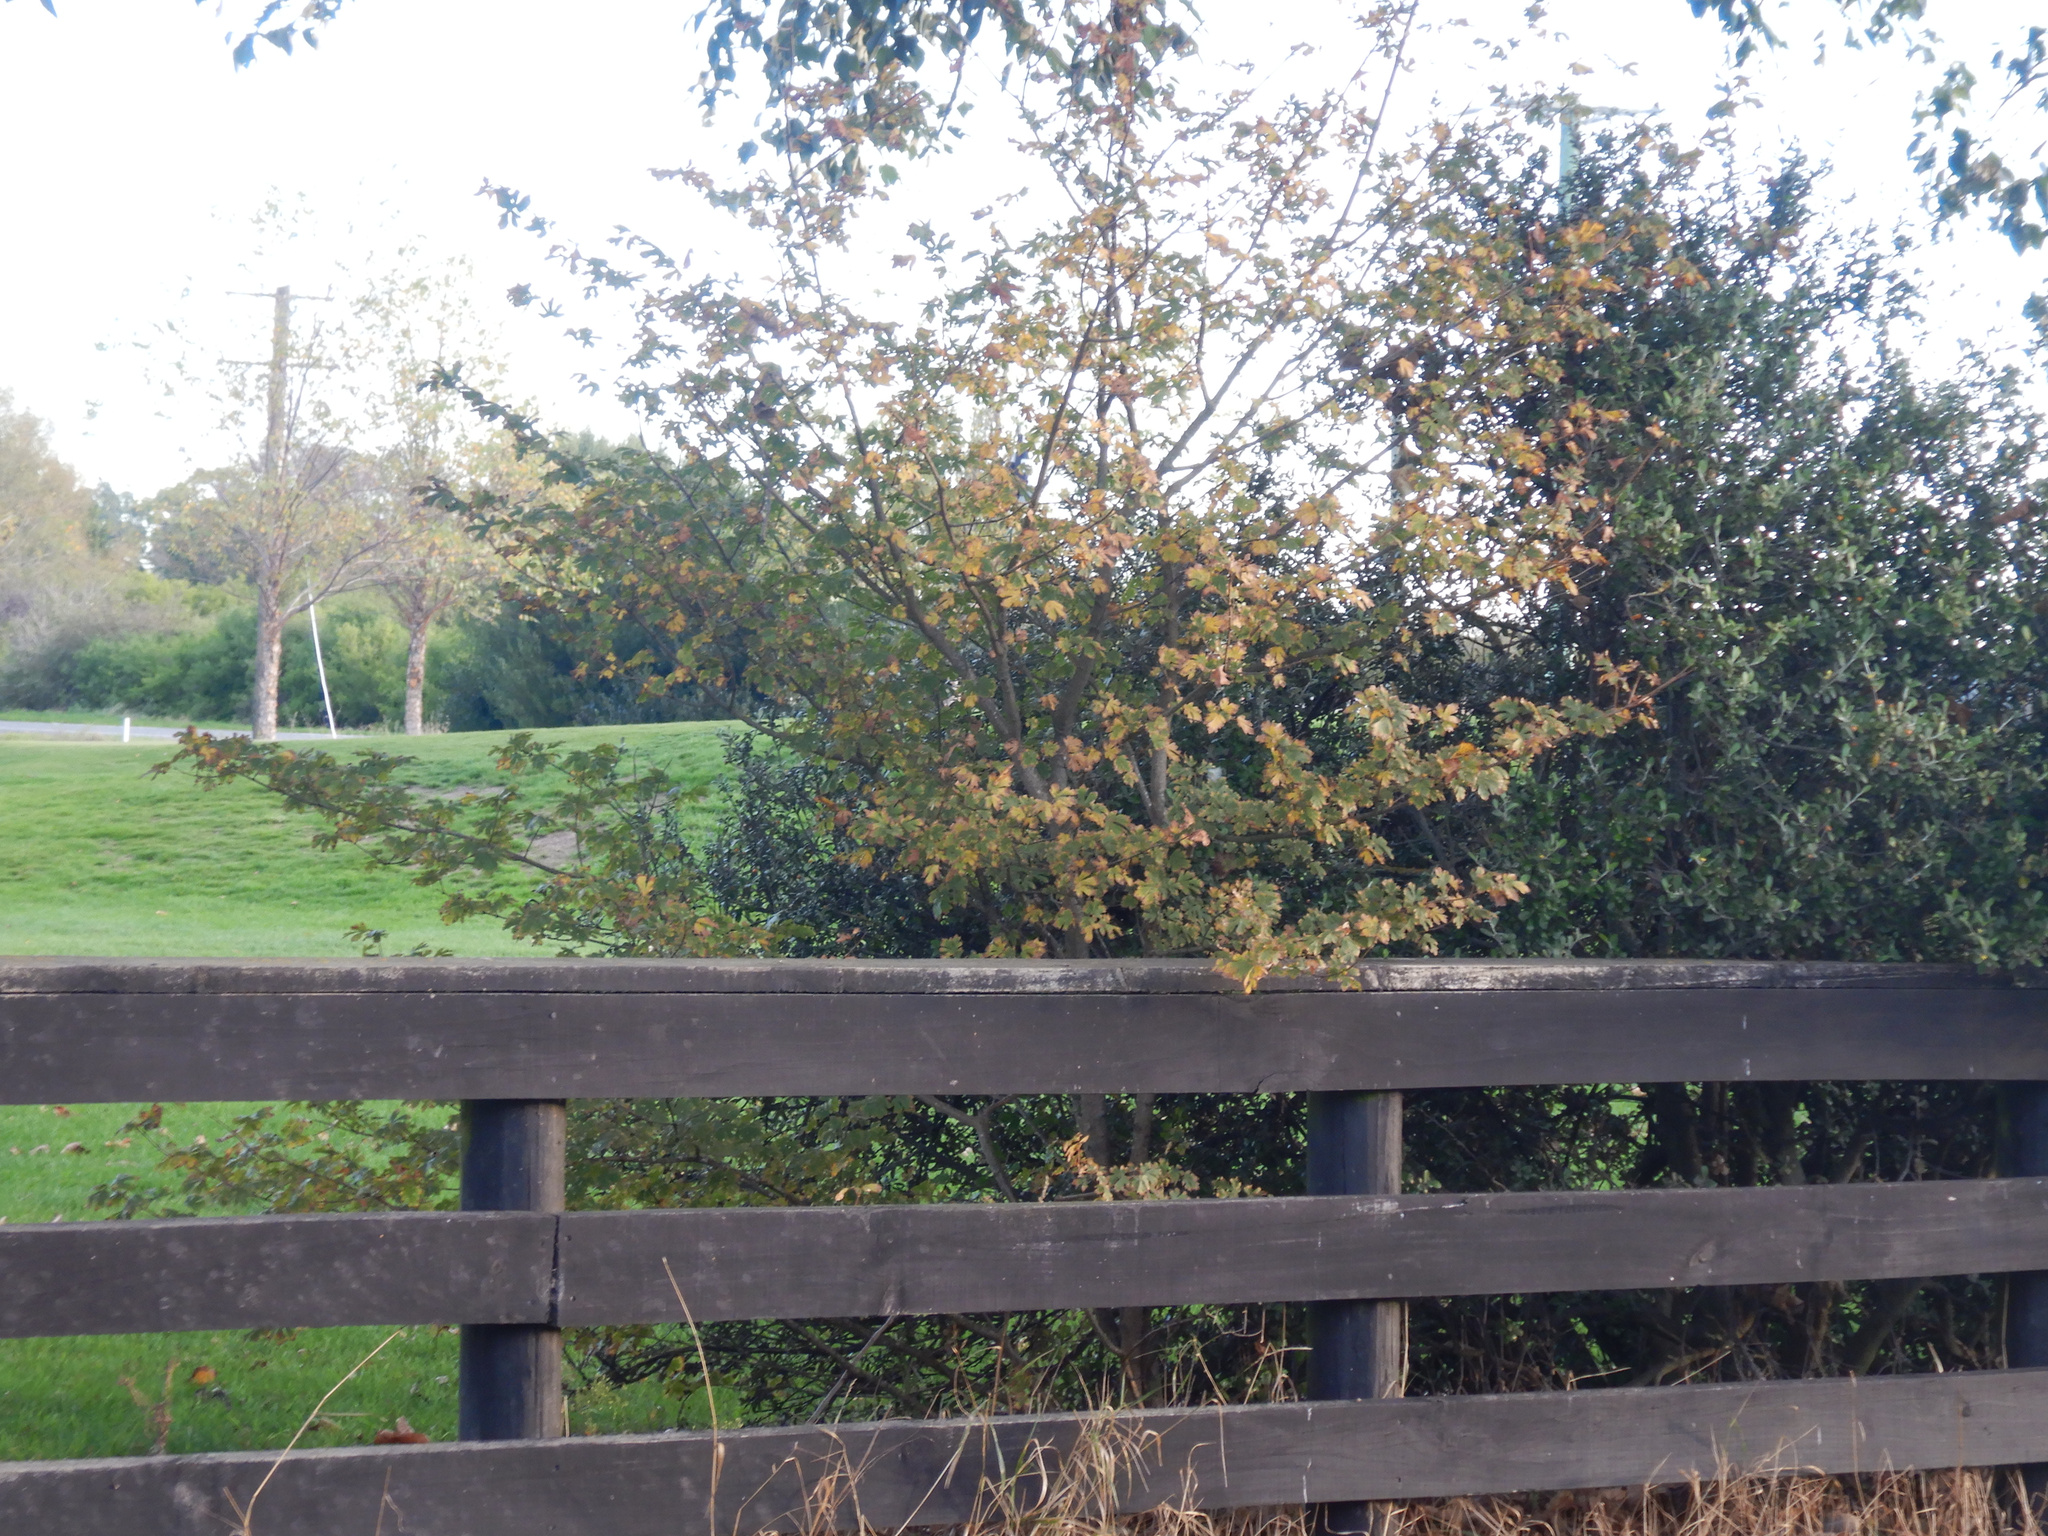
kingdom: Plantae
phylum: Tracheophyta
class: Magnoliopsida
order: Rosales
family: Rosaceae
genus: Crataegus
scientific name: Crataegus monogyna
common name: Hawthorn
